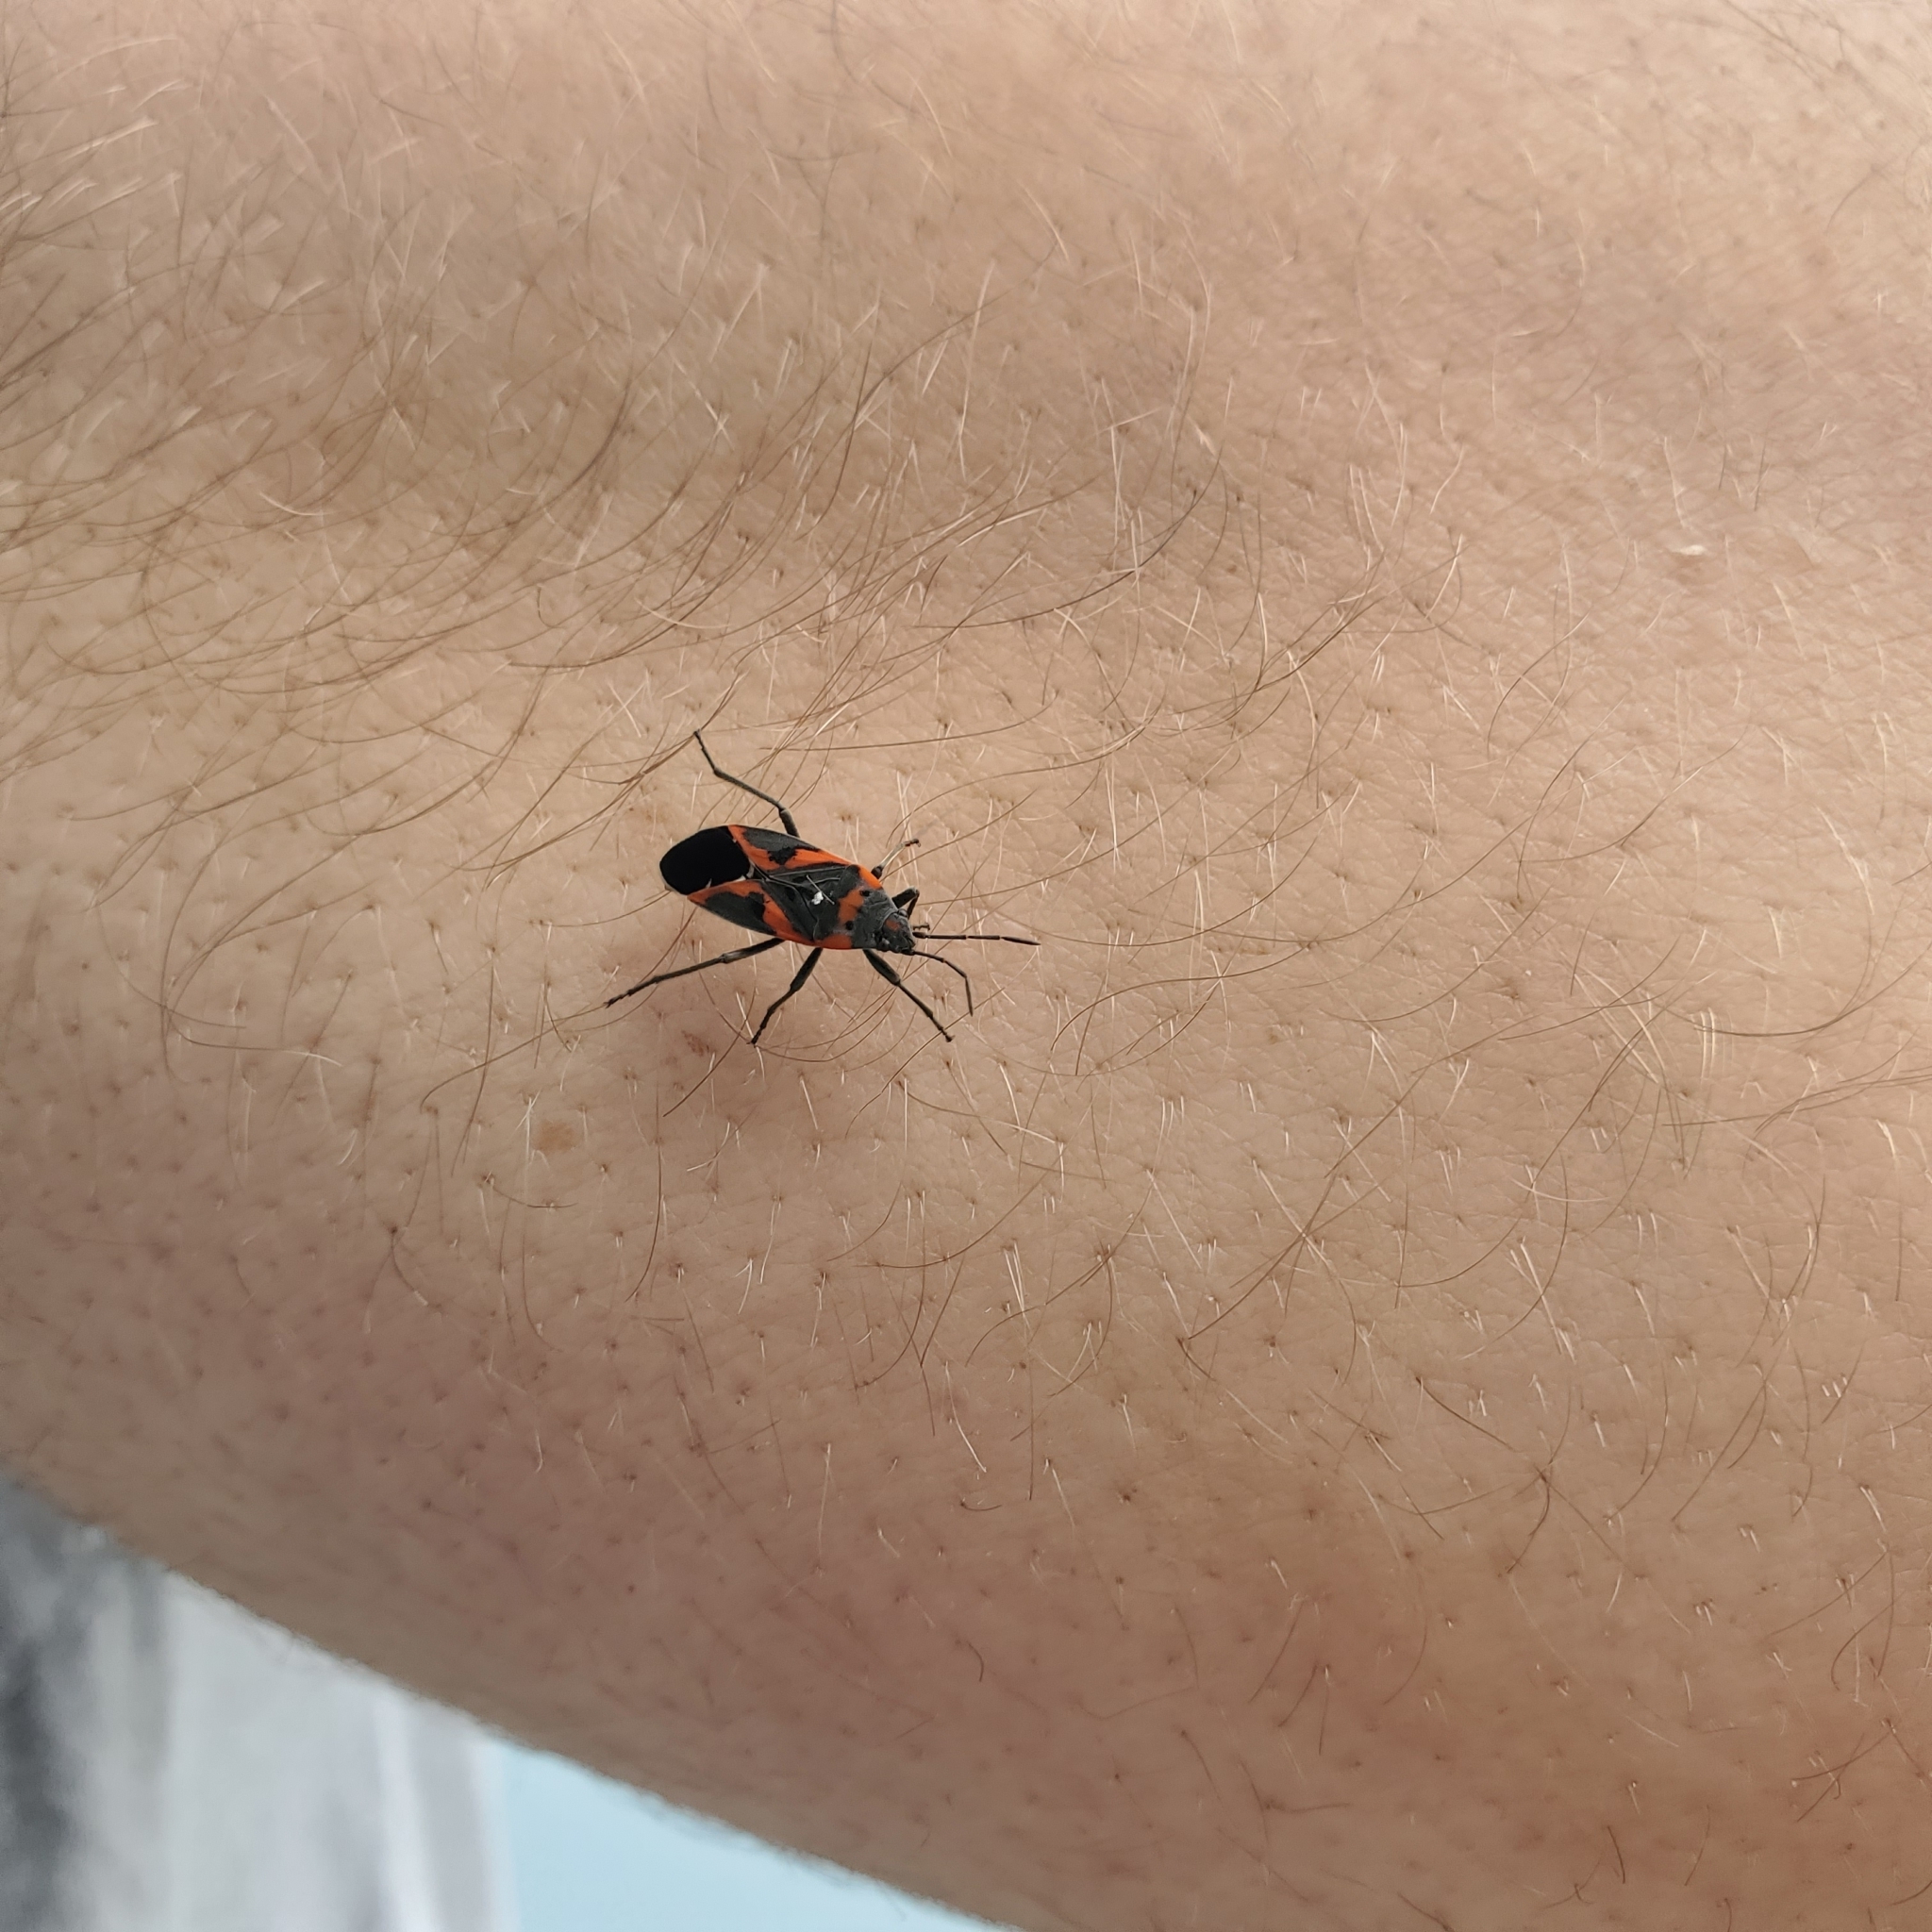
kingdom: Animalia
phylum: Arthropoda
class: Insecta
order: Hemiptera
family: Lygaeidae
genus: Lygaeus
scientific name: Lygaeus kalmii
